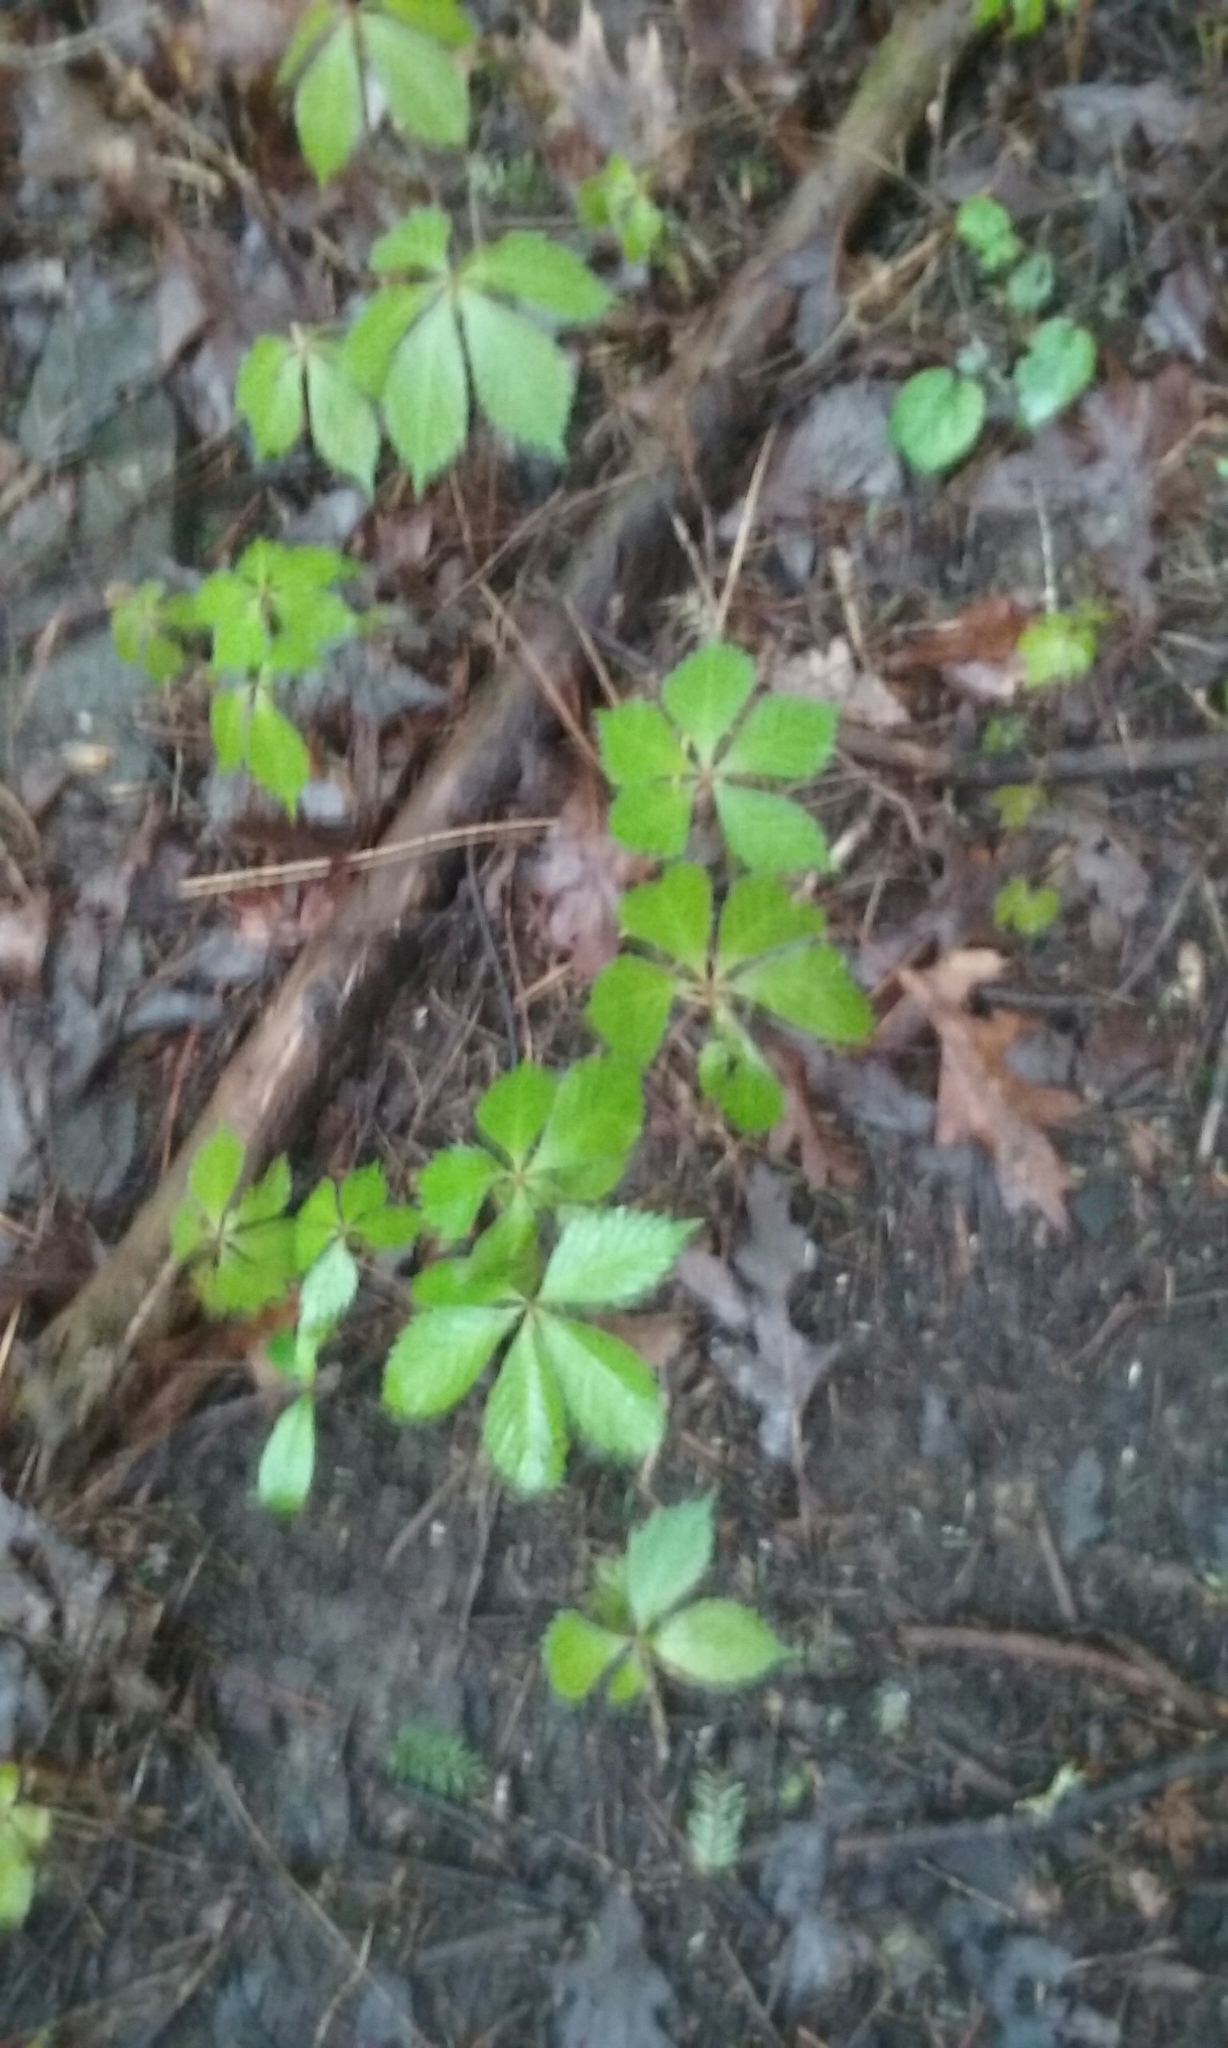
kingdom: Plantae
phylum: Tracheophyta
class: Magnoliopsida
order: Vitales
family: Vitaceae
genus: Parthenocissus
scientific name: Parthenocissus quinquefolia
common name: Virginia-creeper
